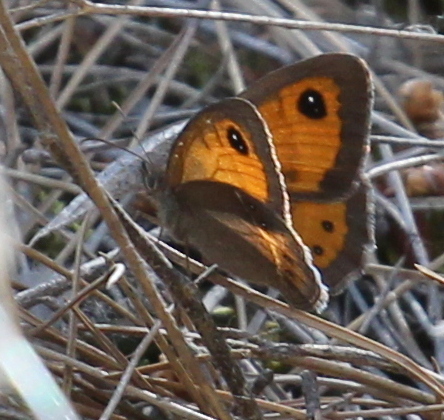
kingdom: Animalia
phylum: Arthropoda
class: Insecta
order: Lepidoptera
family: Nymphalidae
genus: Pyronia
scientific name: Pyronia bathseba
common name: Spanish gatekeeper
